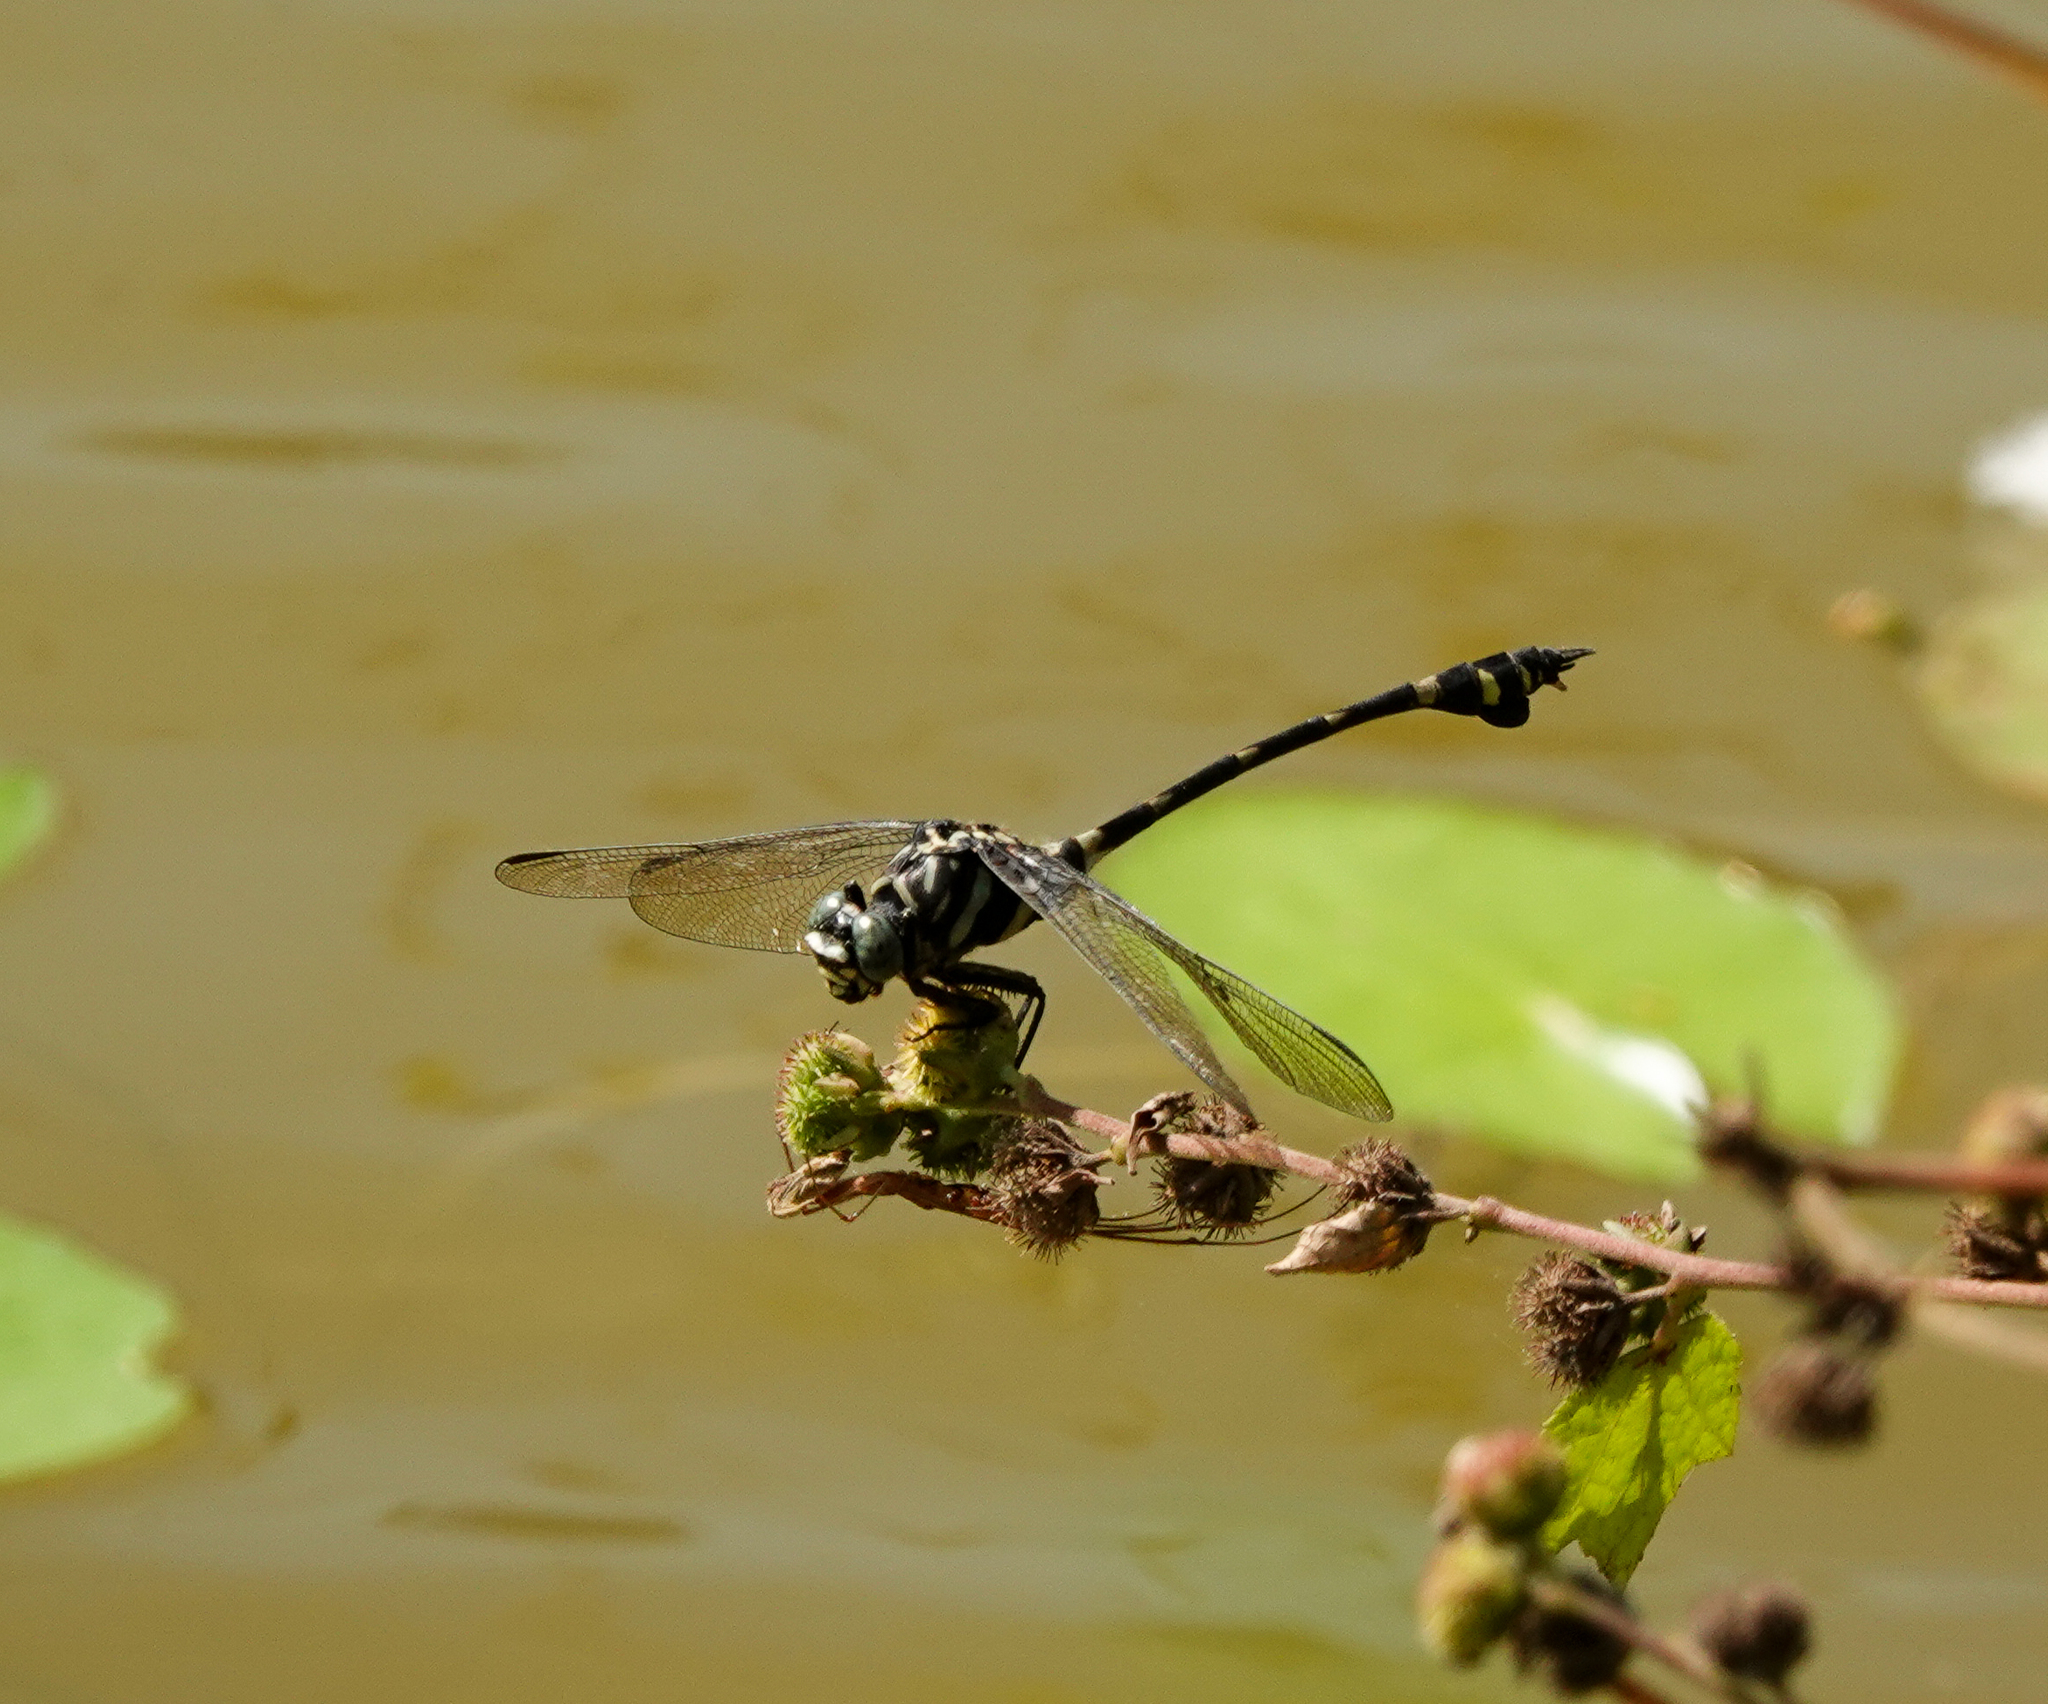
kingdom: Animalia
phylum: Arthropoda
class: Insecta
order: Odonata
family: Gomphidae
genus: Ictinogomphus
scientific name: Ictinogomphus rapax
